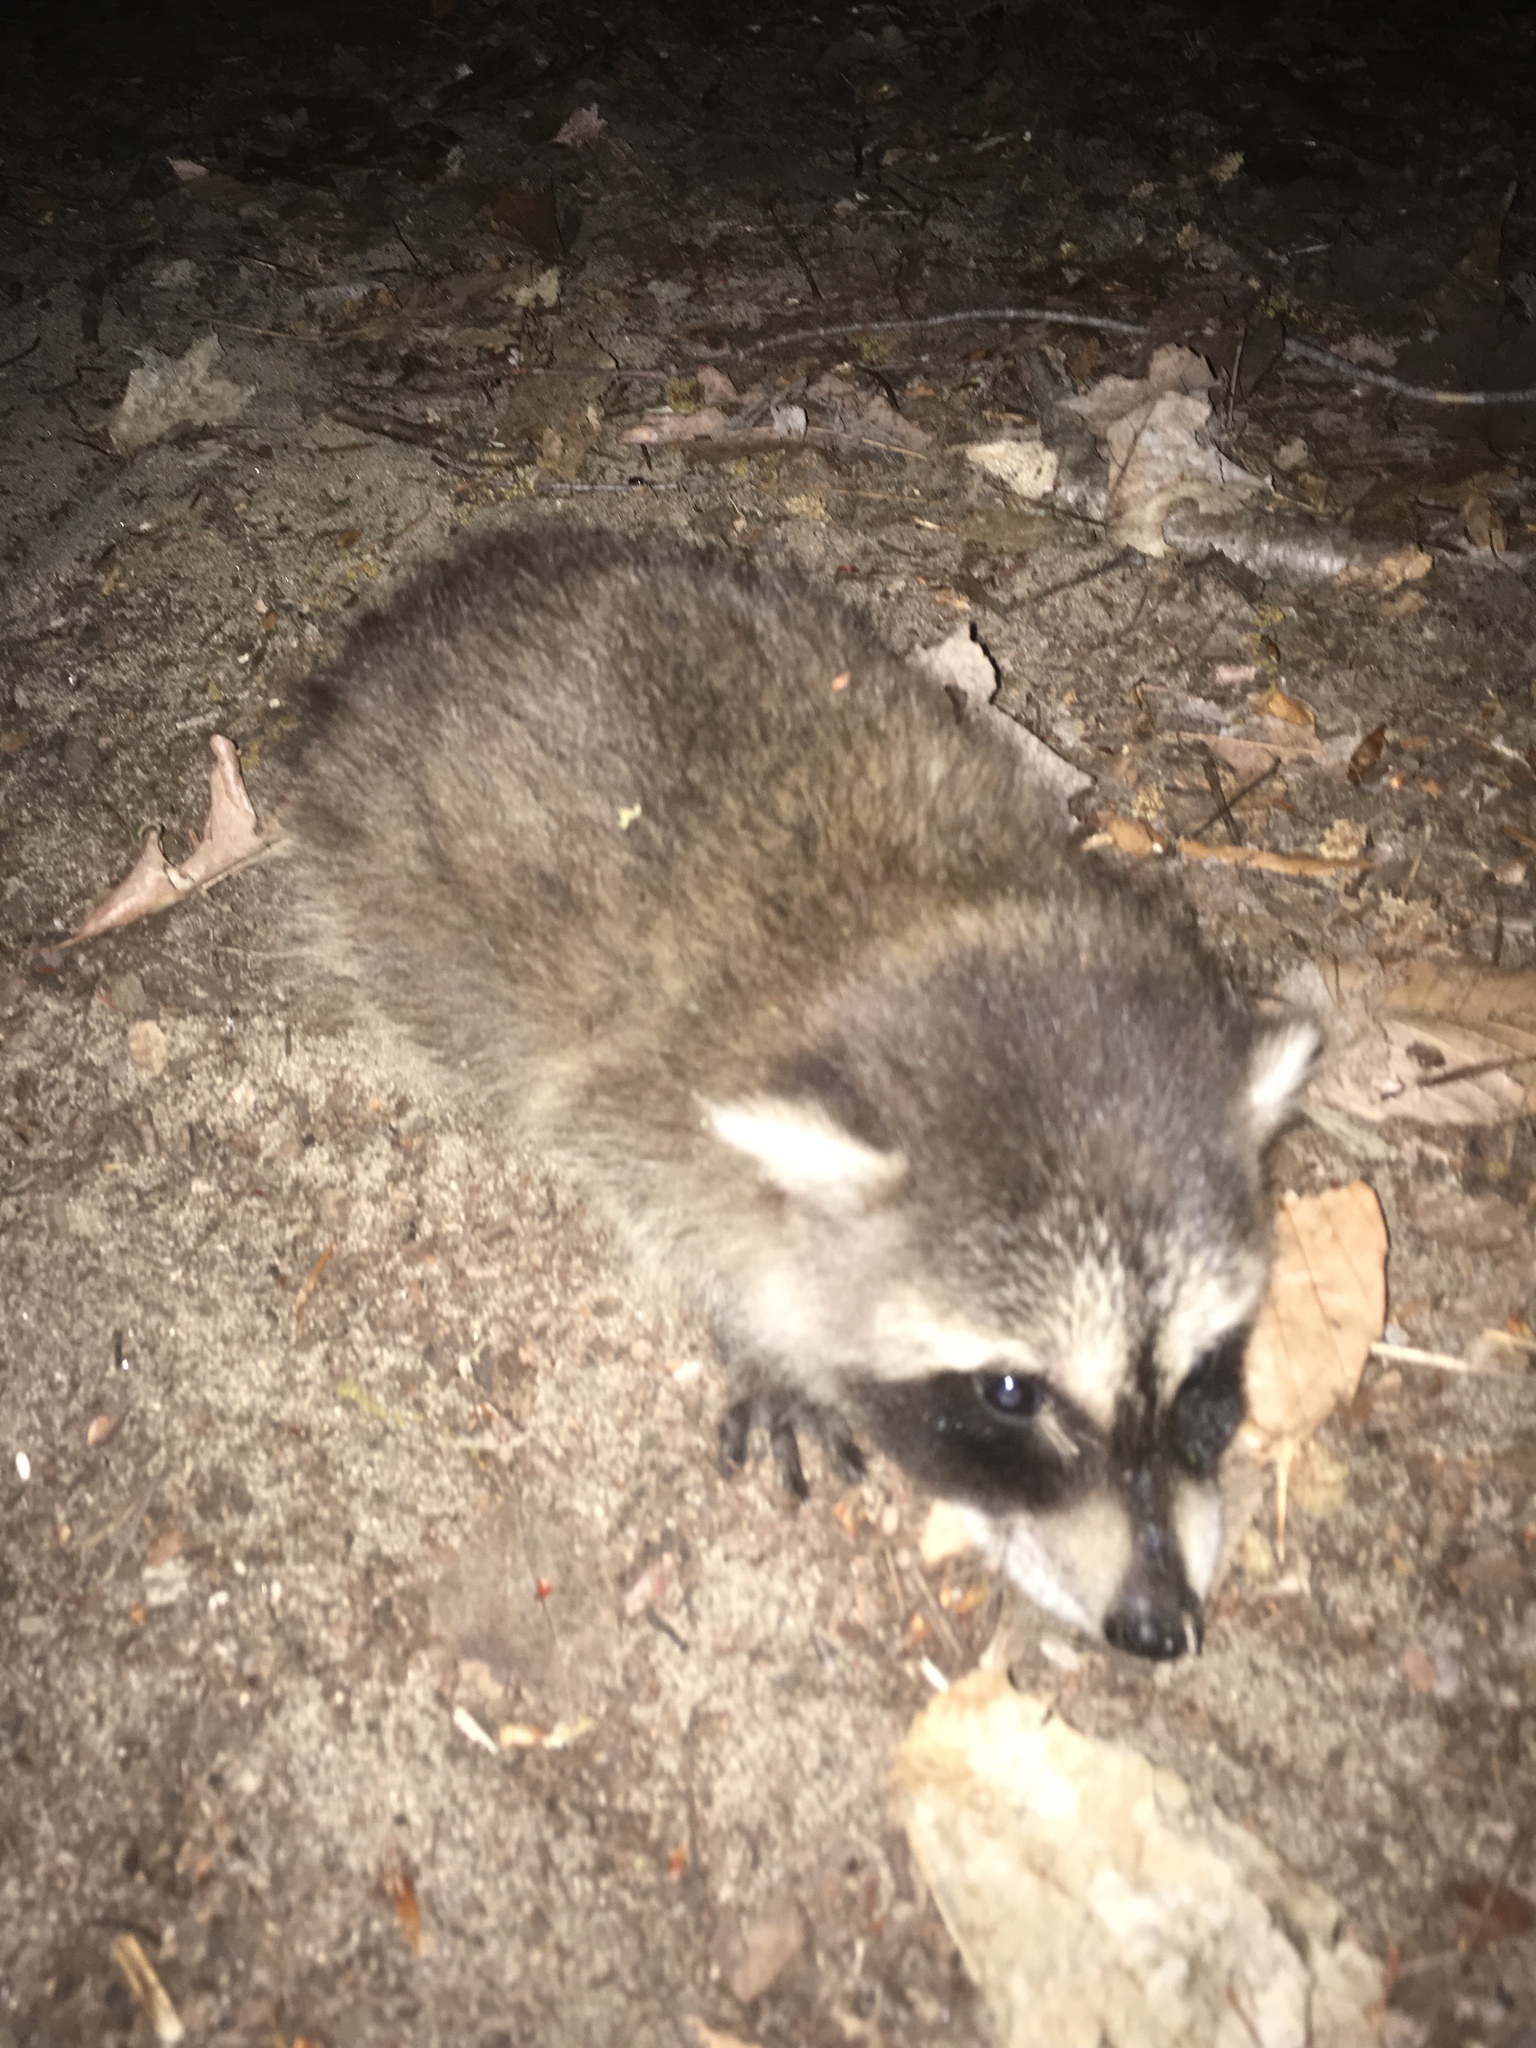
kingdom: Animalia
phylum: Chordata
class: Mammalia
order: Carnivora
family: Procyonidae
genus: Procyon
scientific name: Procyon lotor
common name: Raccoon
